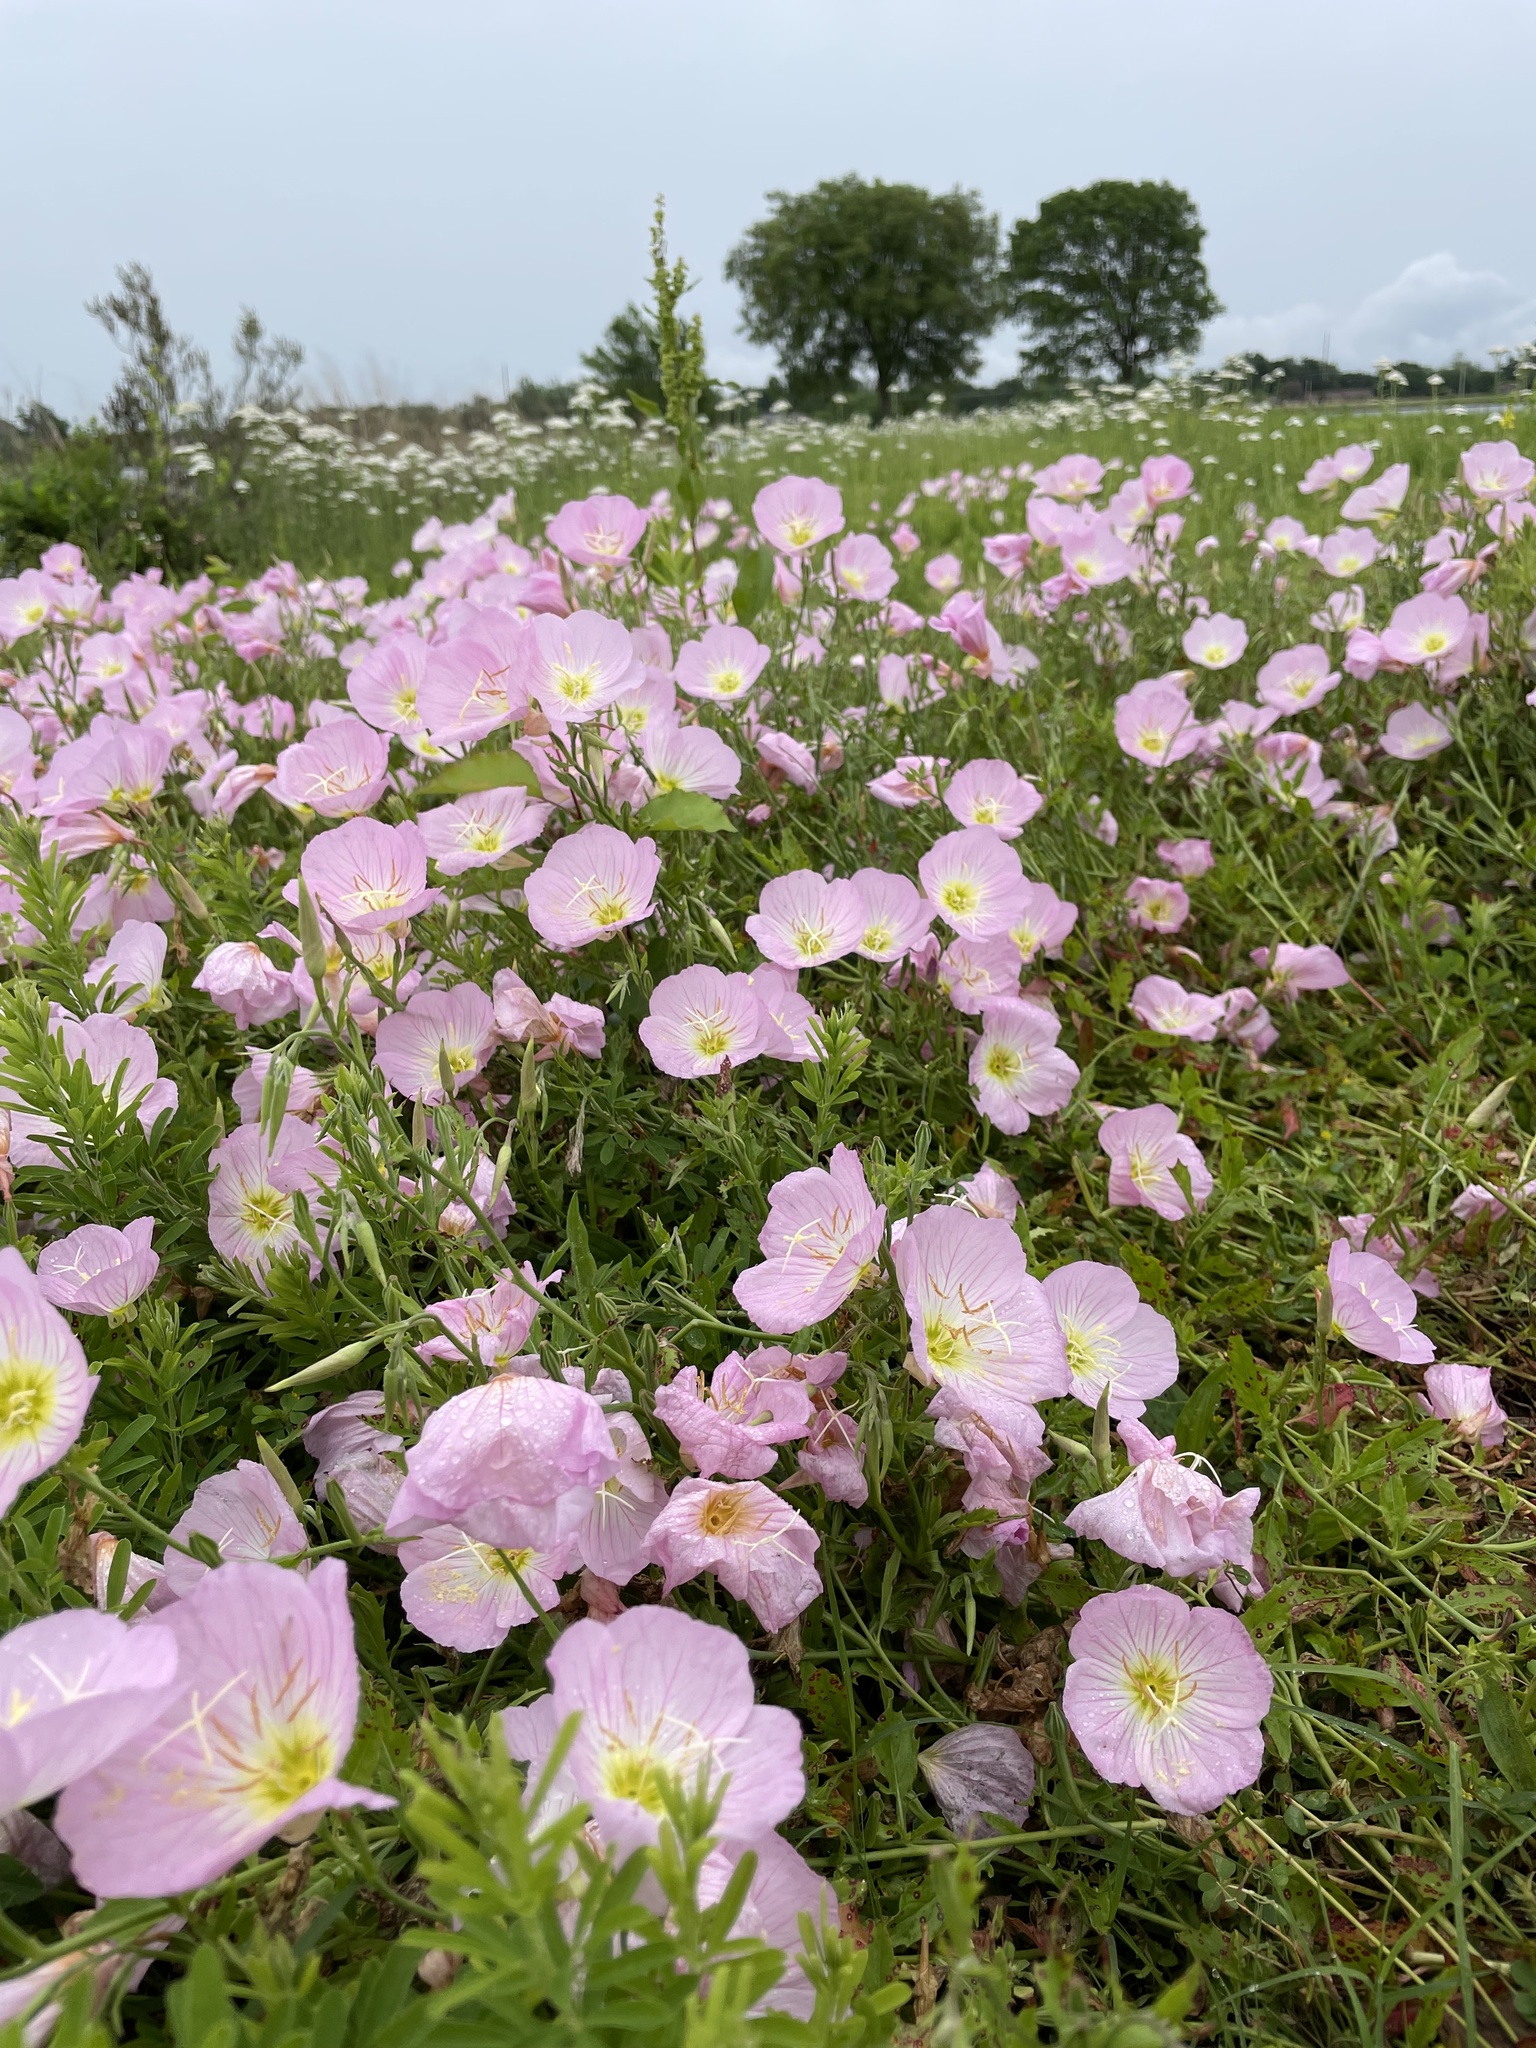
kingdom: Plantae
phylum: Tracheophyta
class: Magnoliopsida
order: Myrtales
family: Onagraceae
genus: Oenothera
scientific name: Oenothera speciosa
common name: White evening-primrose
